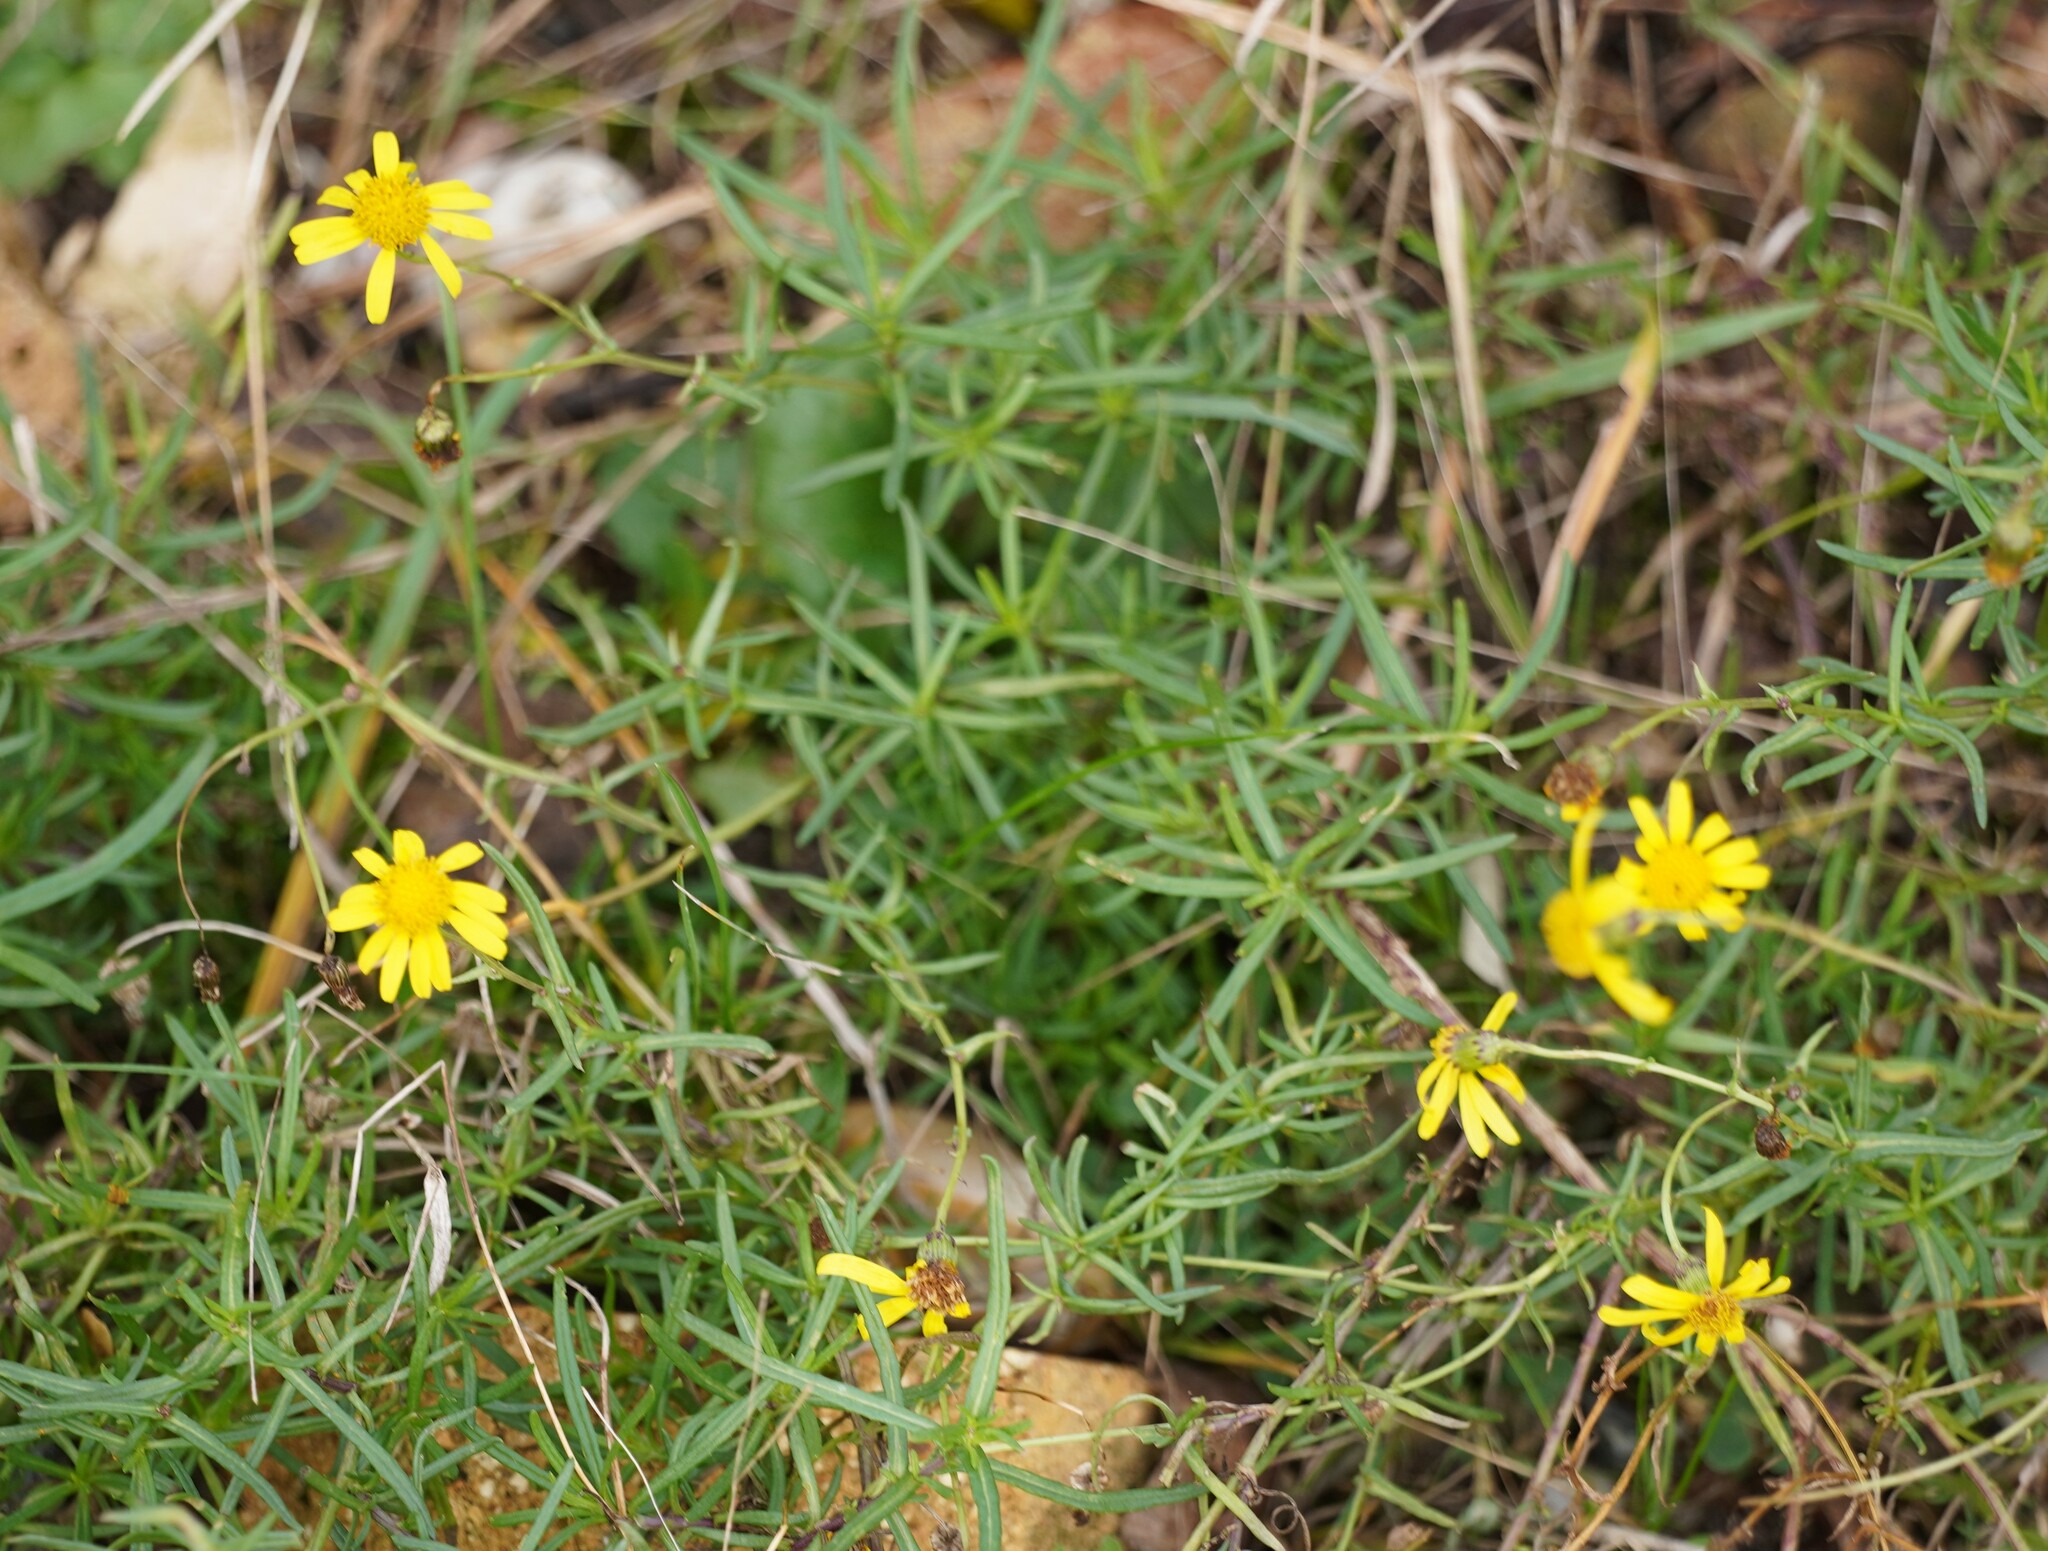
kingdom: Plantae
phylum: Tracheophyta
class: Magnoliopsida
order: Asterales
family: Asteraceae
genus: Senecio
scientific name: Senecio inaequidens
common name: Narrow-leaved ragwort
